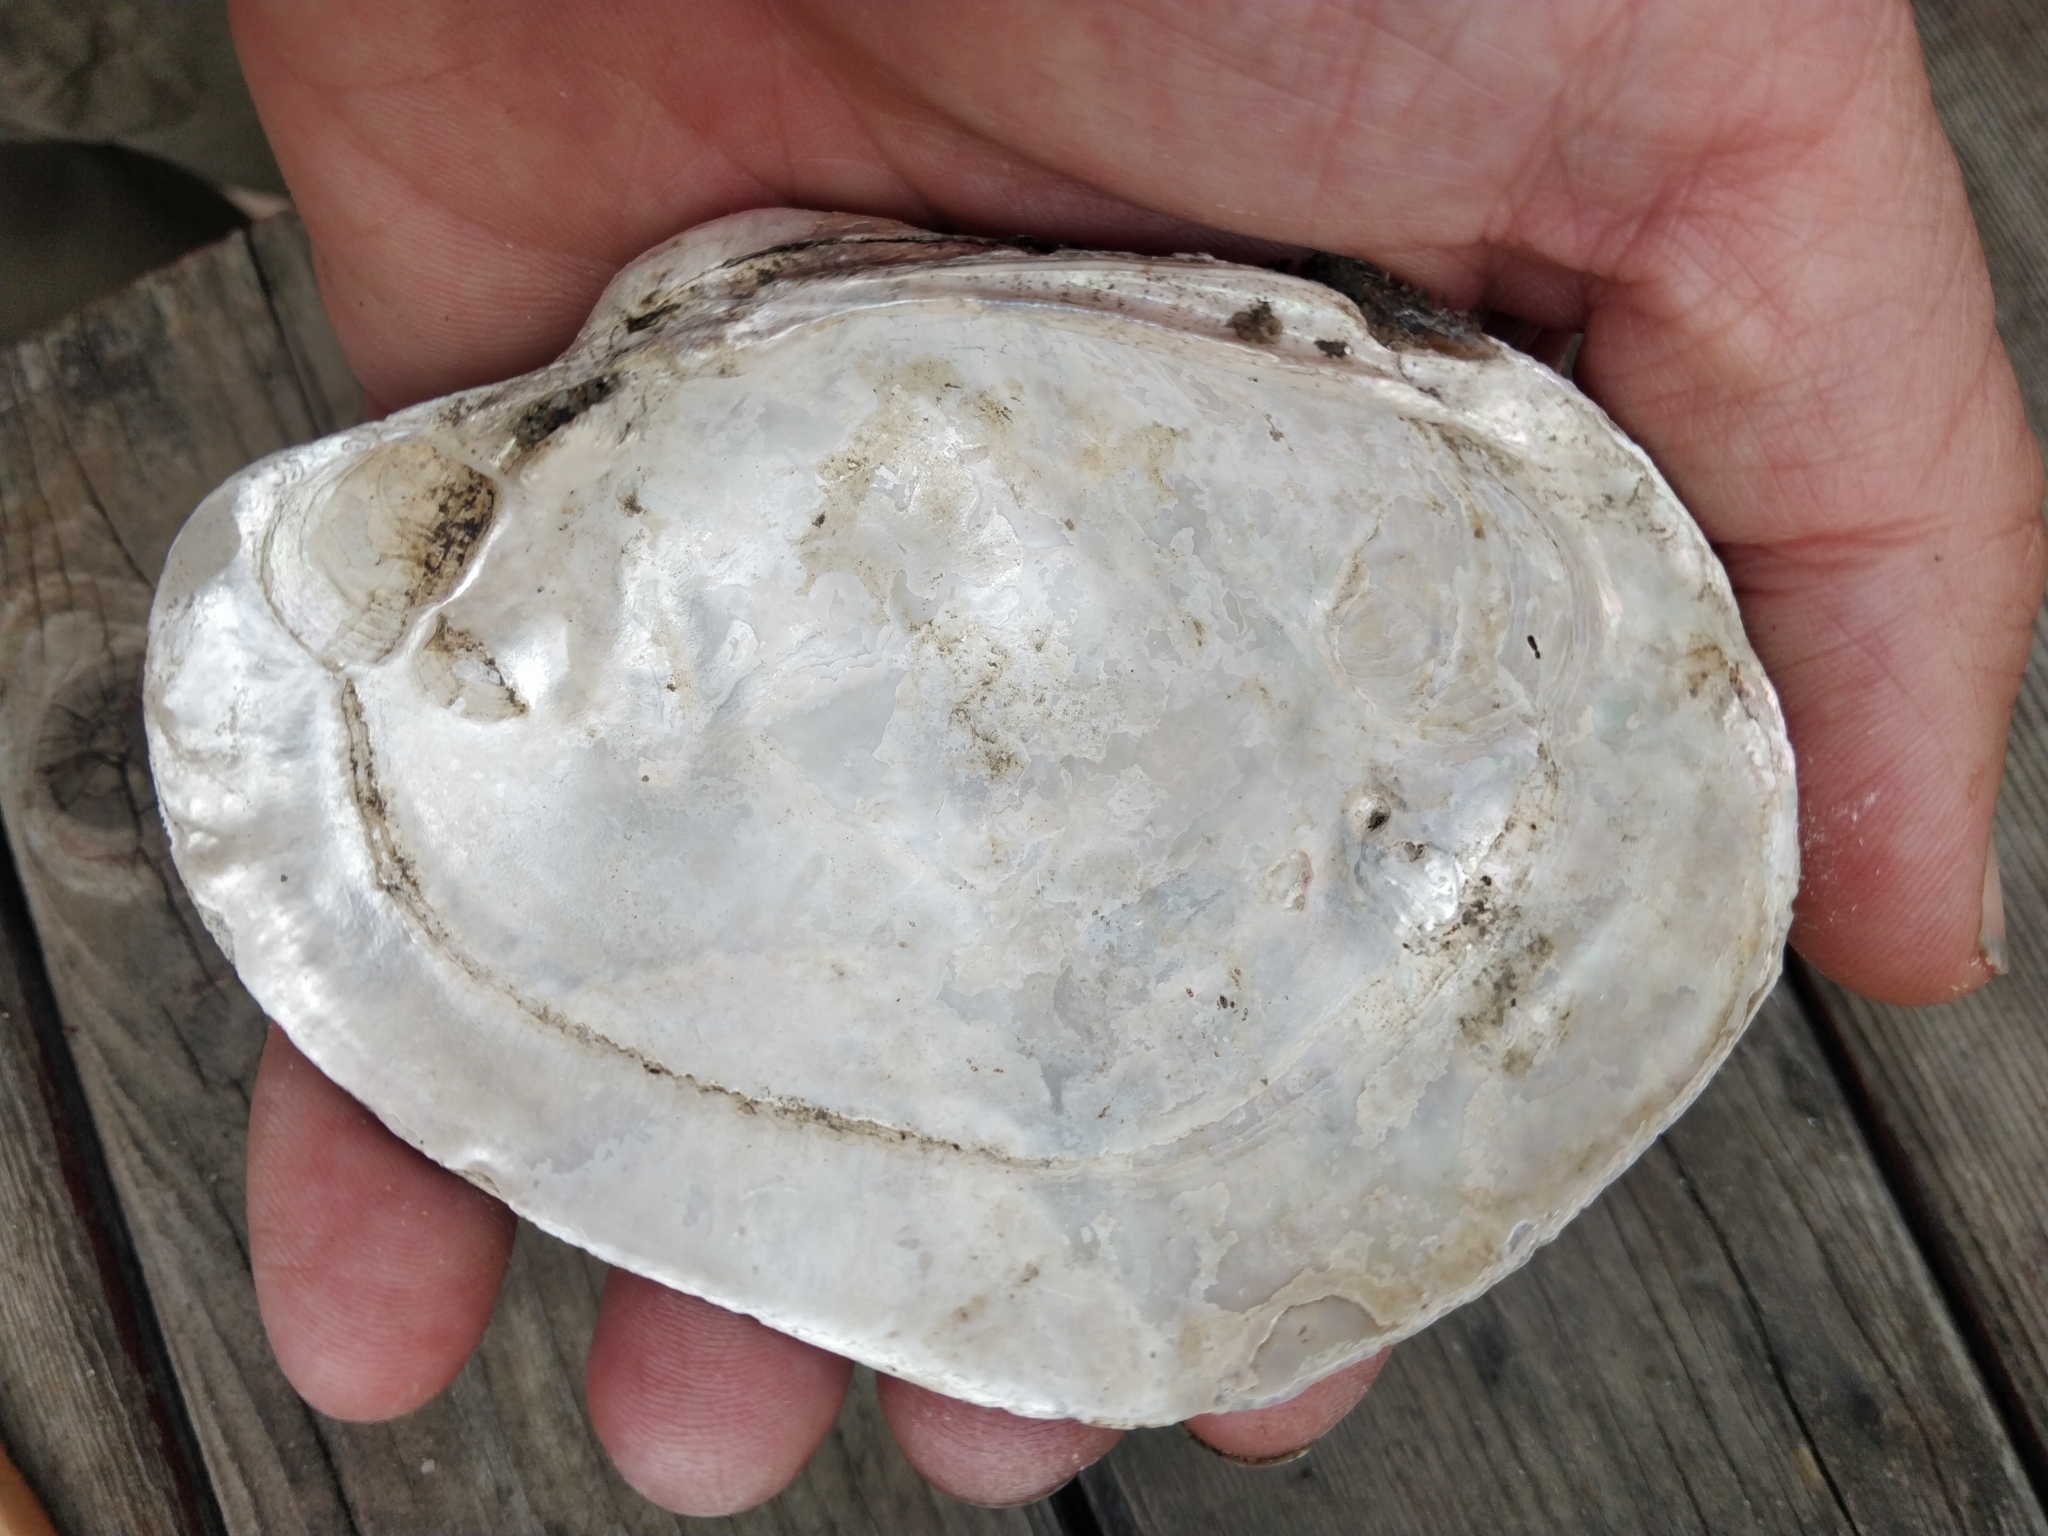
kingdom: Animalia
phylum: Mollusca
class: Bivalvia
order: Unionida
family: Unionidae
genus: Lampsilis
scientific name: Lampsilis cardium
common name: Plain pocketbook
